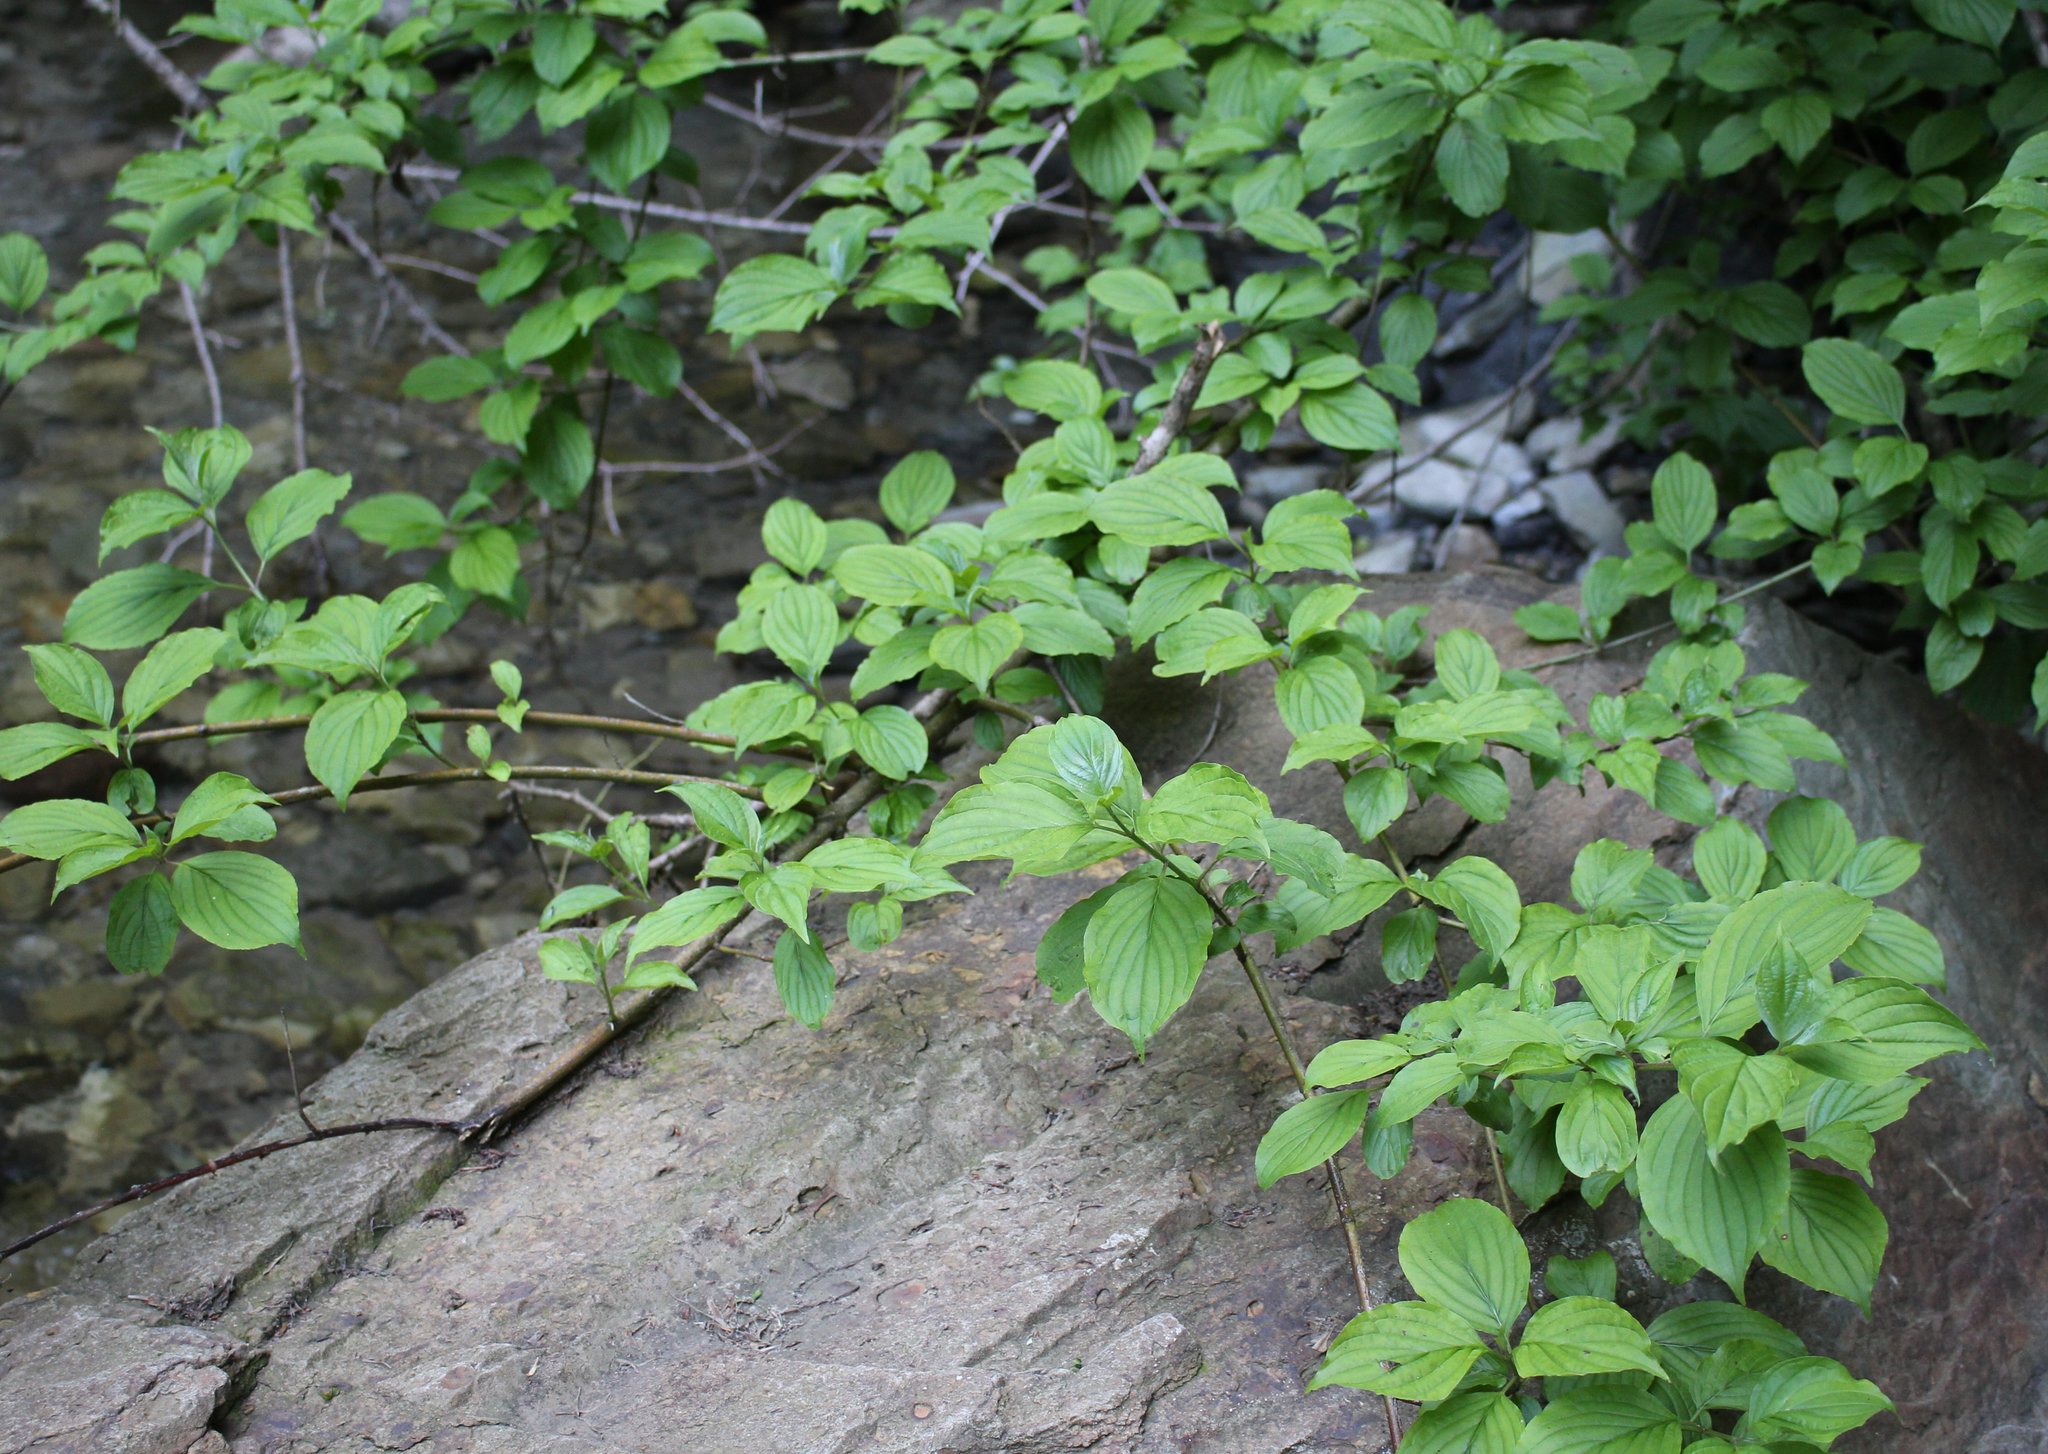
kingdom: Plantae
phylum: Tracheophyta
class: Magnoliopsida
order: Cornales
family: Cornaceae
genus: Cornus
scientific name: Cornus sanguinea
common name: Dogwood
